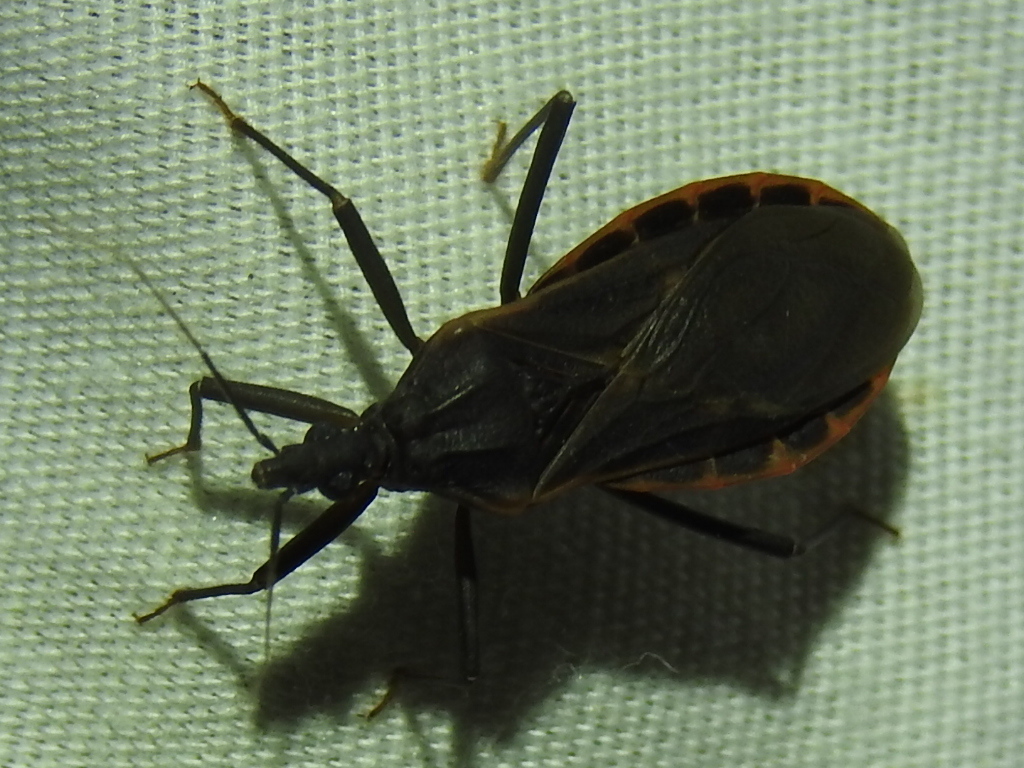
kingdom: Animalia
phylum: Arthropoda
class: Insecta
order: Hemiptera
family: Reduviidae
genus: Triatoma
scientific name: Triatoma rubida
